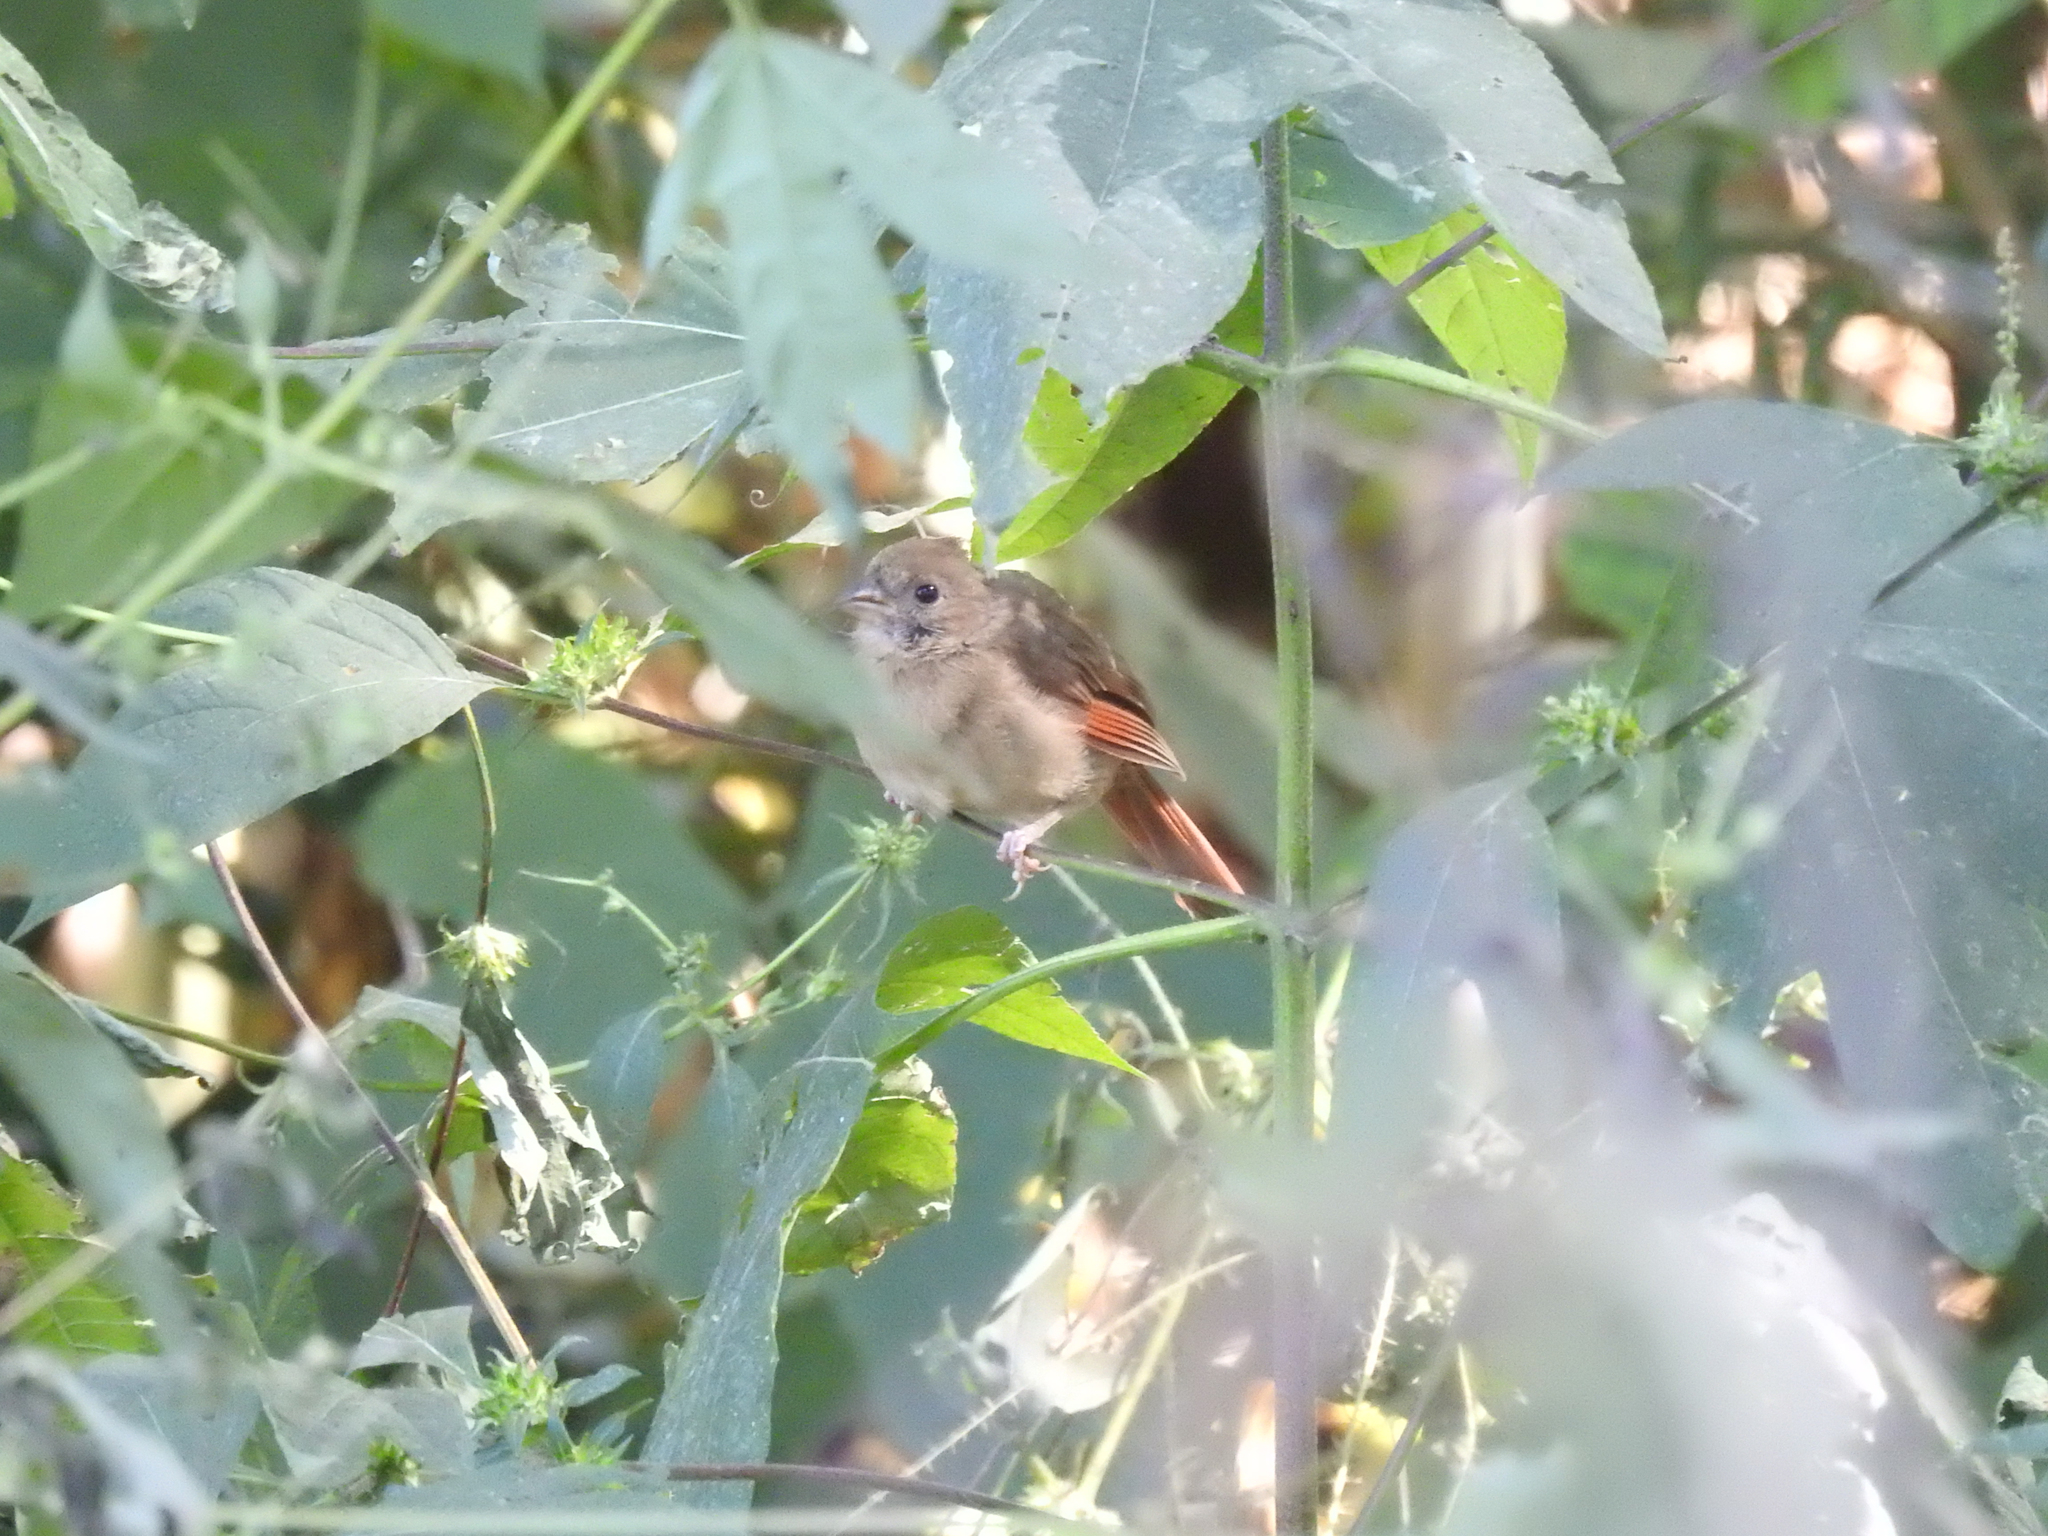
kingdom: Animalia
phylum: Chordata
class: Aves
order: Passeriformes
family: Cardinalidae
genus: Cardinalis
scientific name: Cardinalis cardinalis
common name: Northern cardinal
